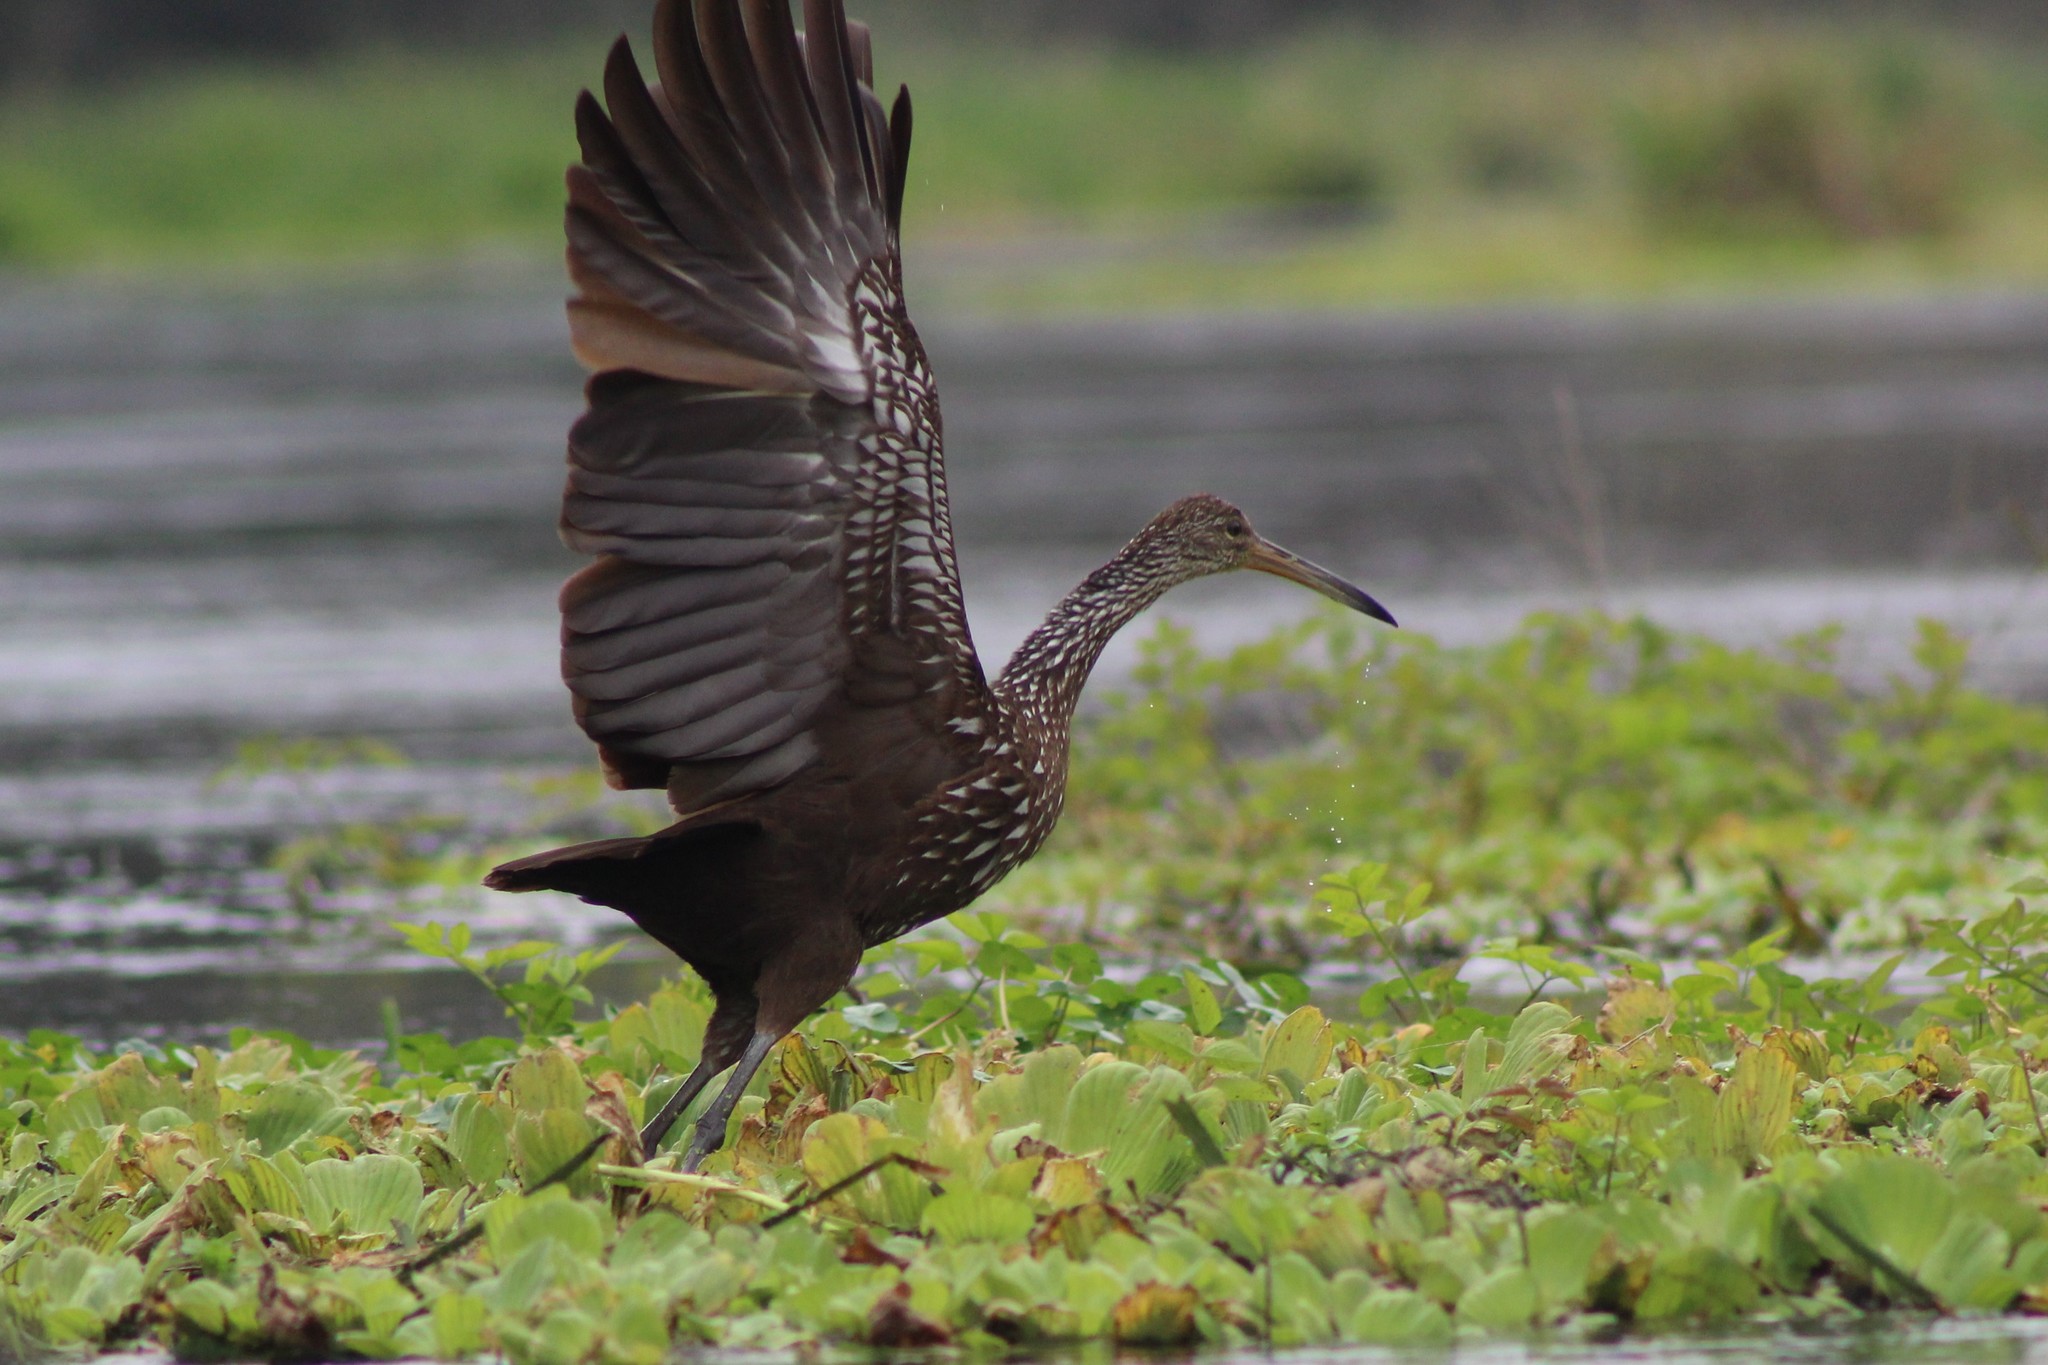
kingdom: Animalia
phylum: Chordata
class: Aves
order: Gruiformes
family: Aramidae
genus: Aramus
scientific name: Aramus guarauna
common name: Limpkin
